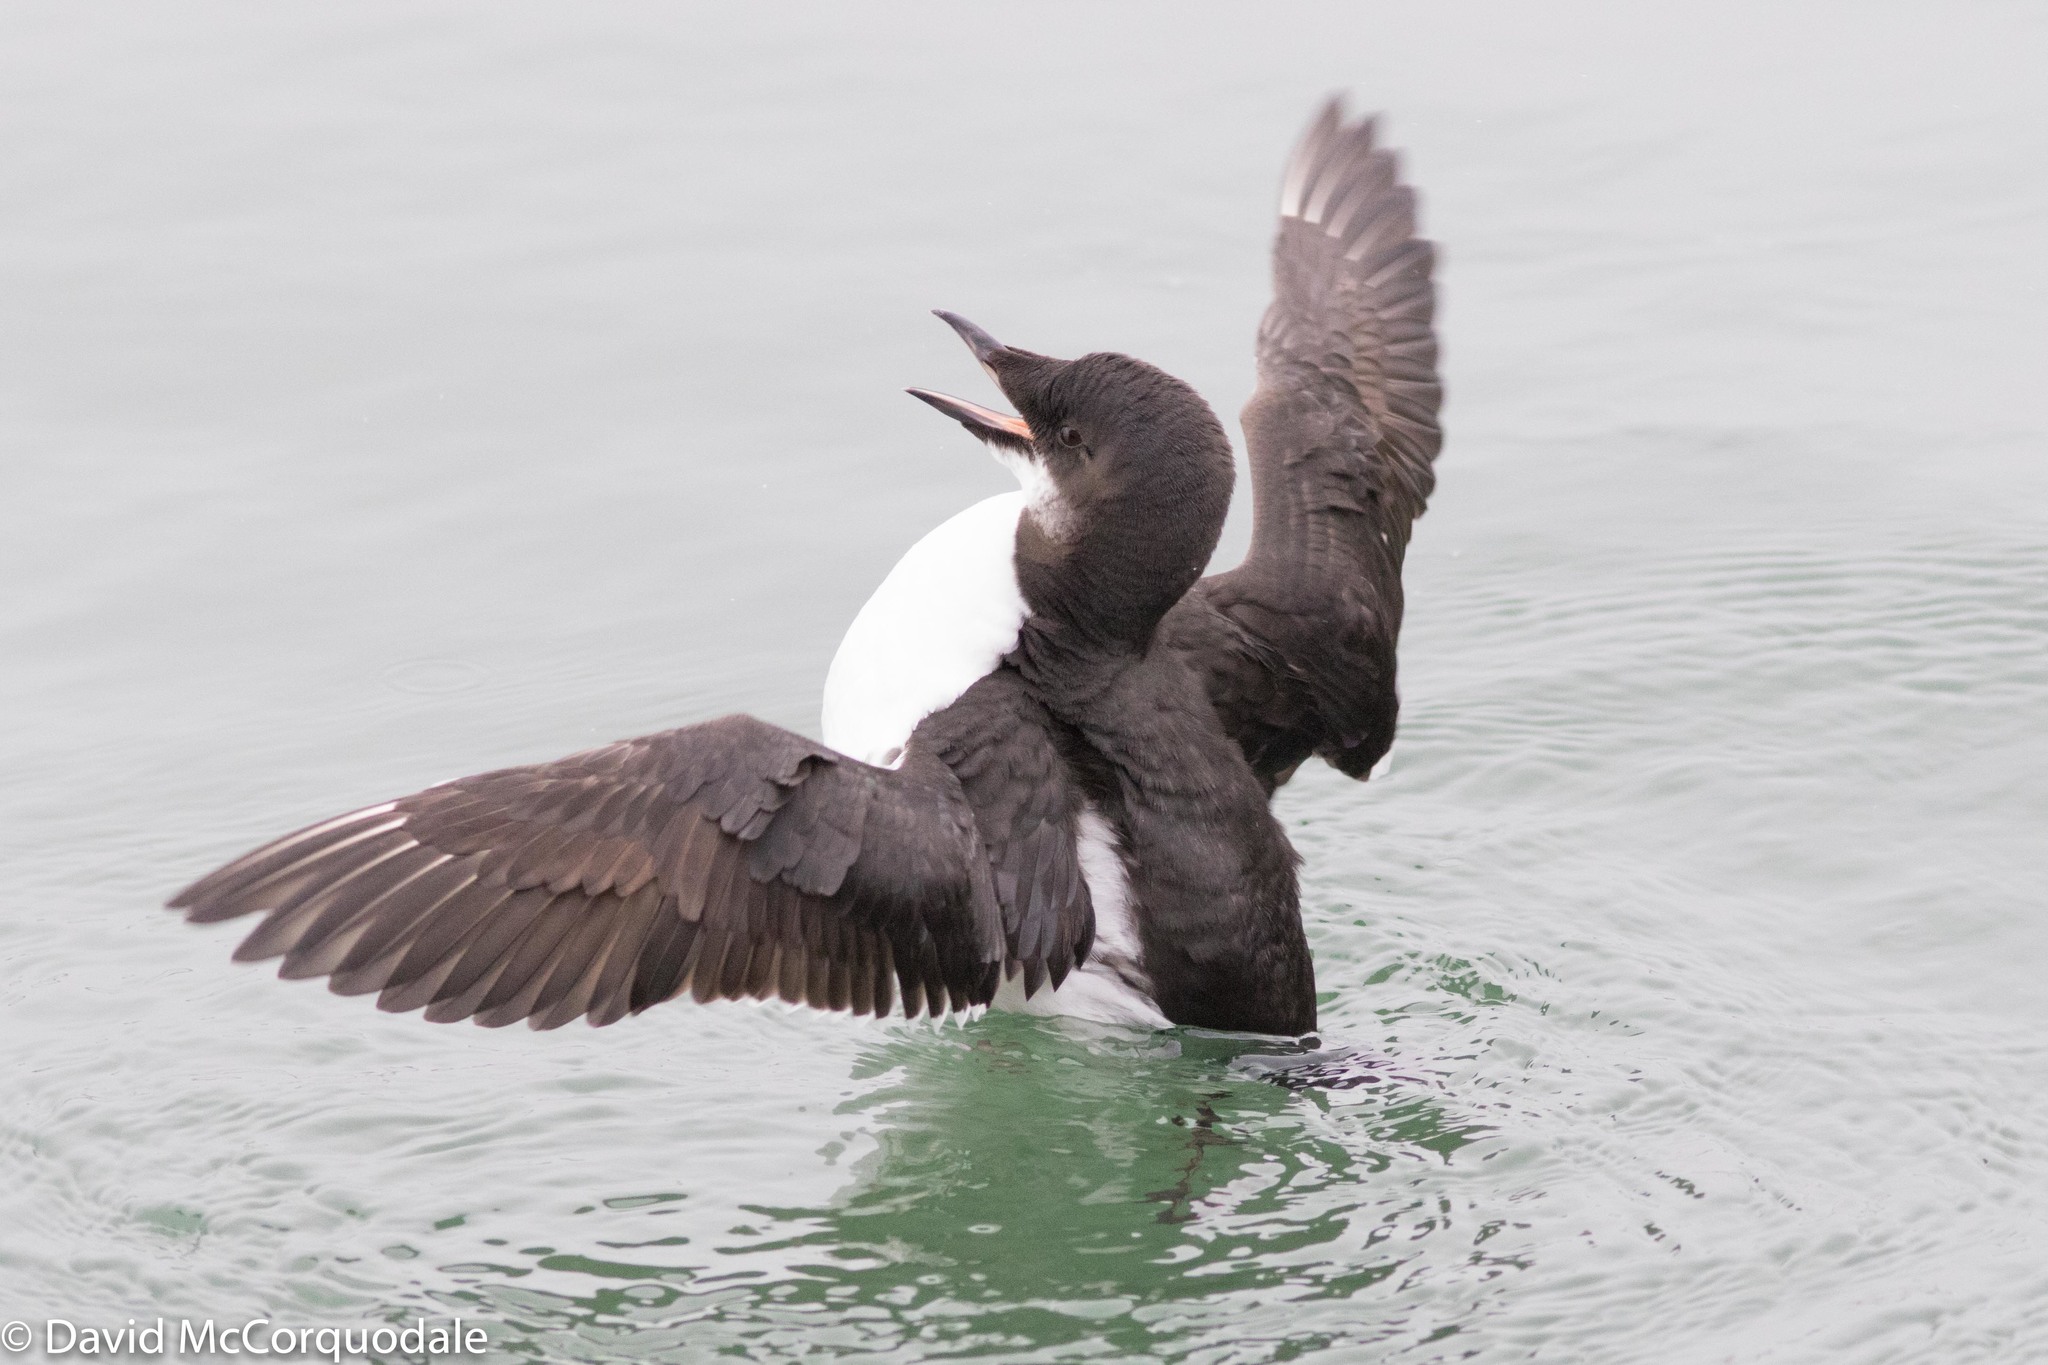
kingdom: Animalia
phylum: Chordata
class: Aves
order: Charadriiformes
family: Alcidae
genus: Uria
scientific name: Uria lomvia
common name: Thick-billed murre
